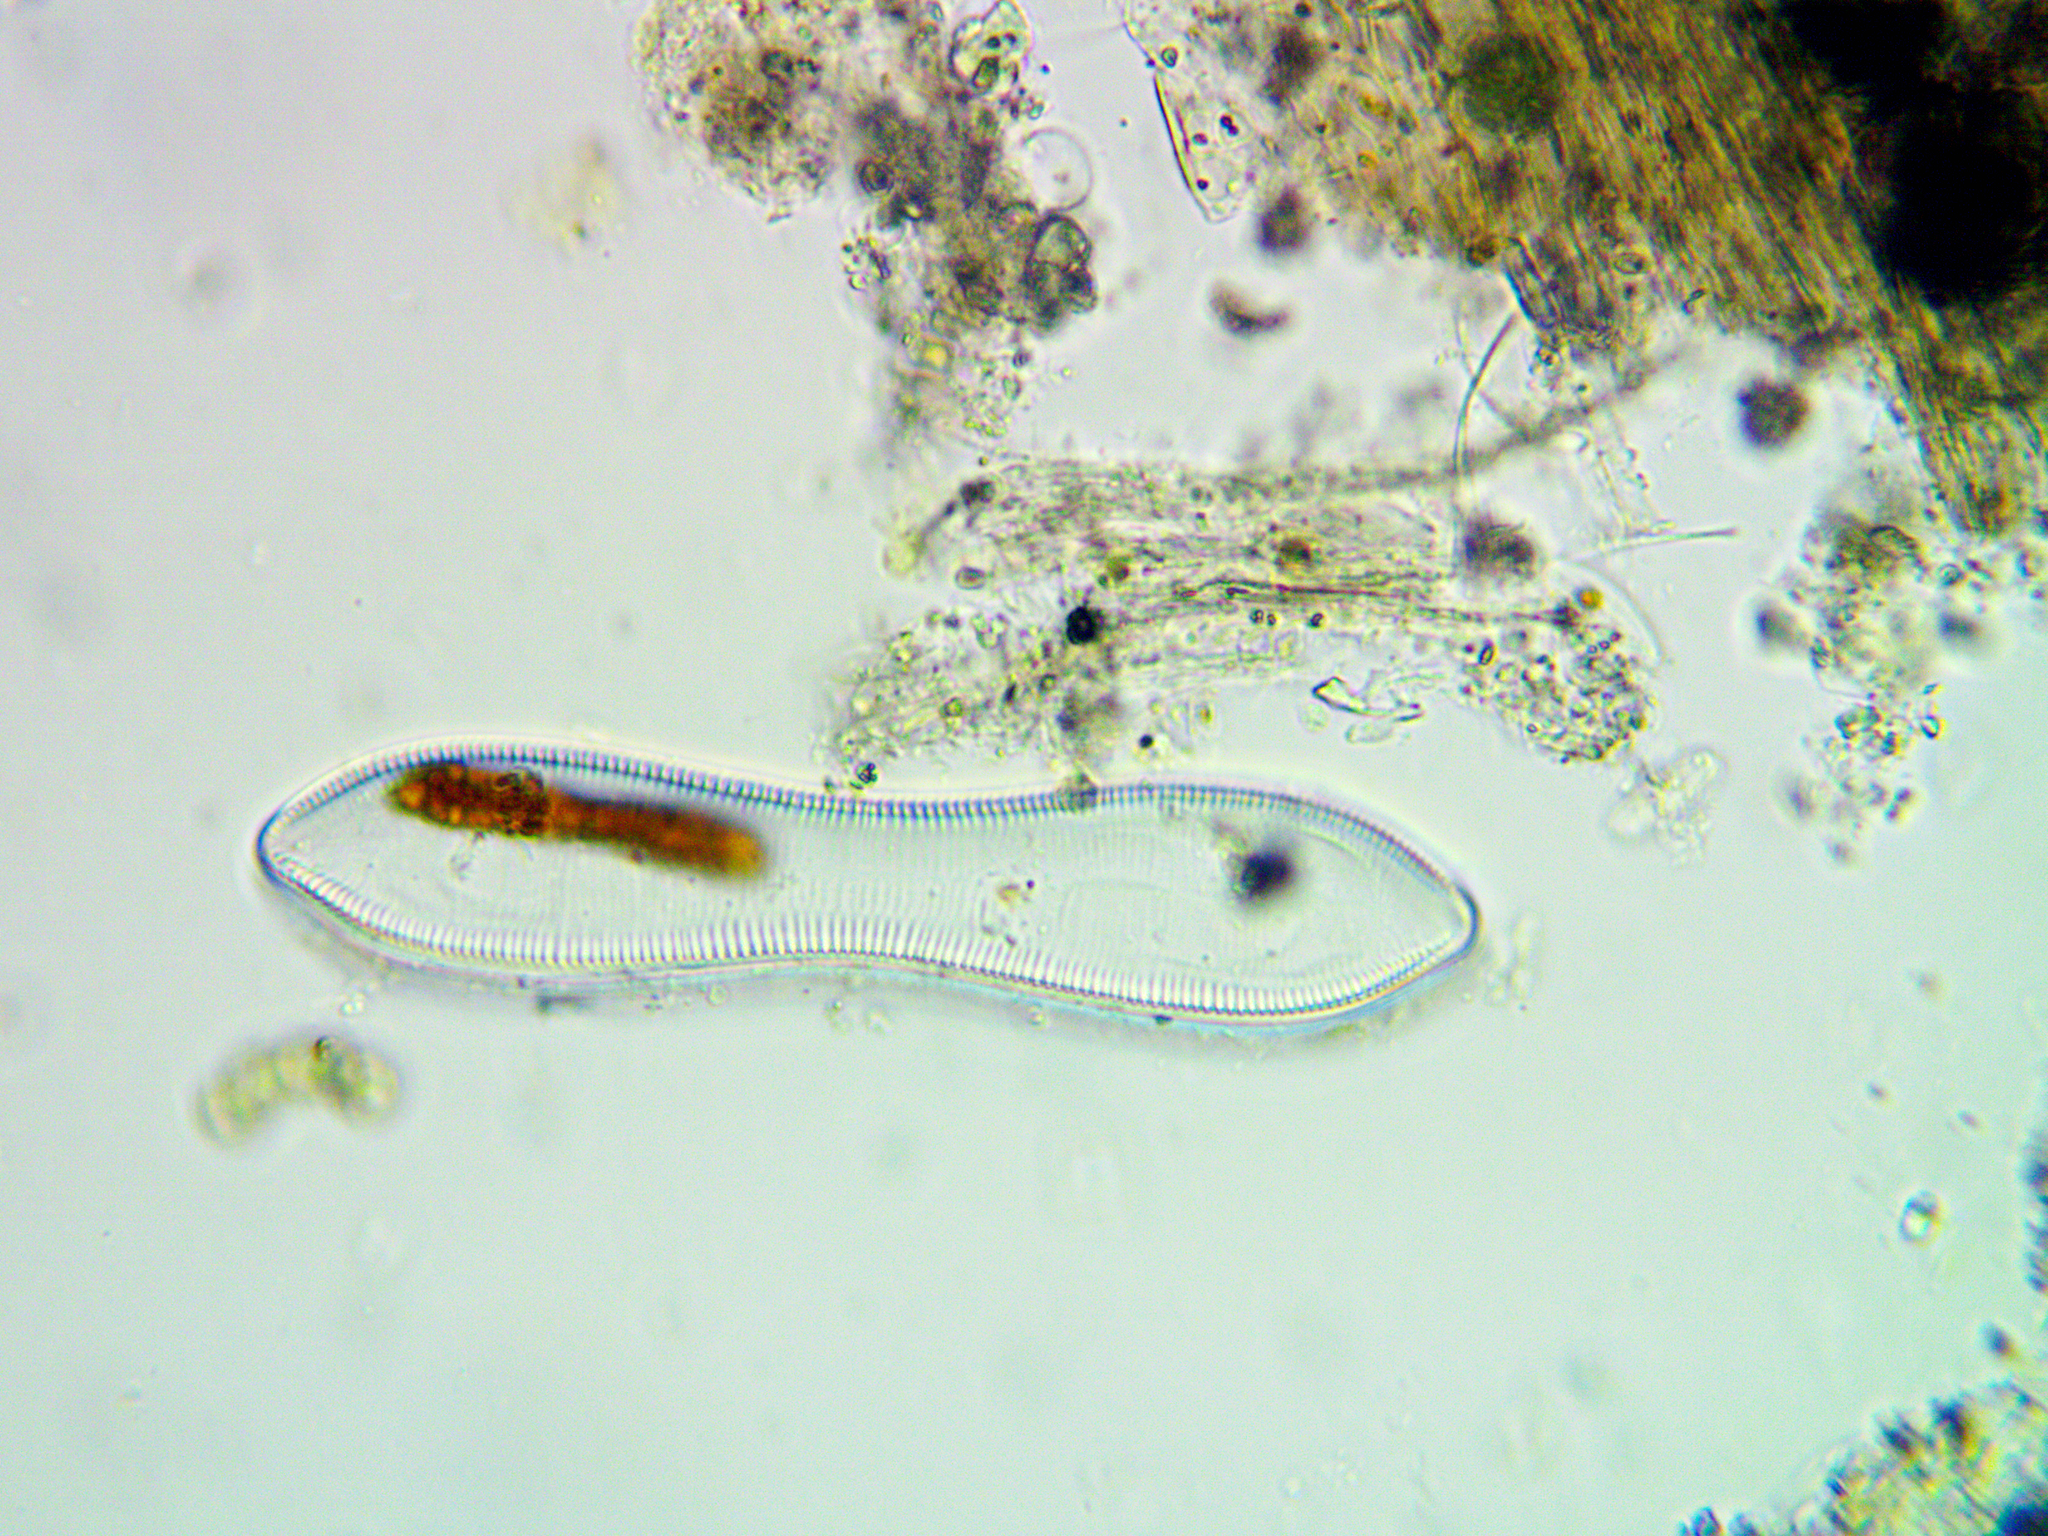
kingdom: Chromista
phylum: Ochrophyta
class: Bacillariophyceae
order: Surirellales
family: Surirellaceae
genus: Surirella
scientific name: Surirella librile
